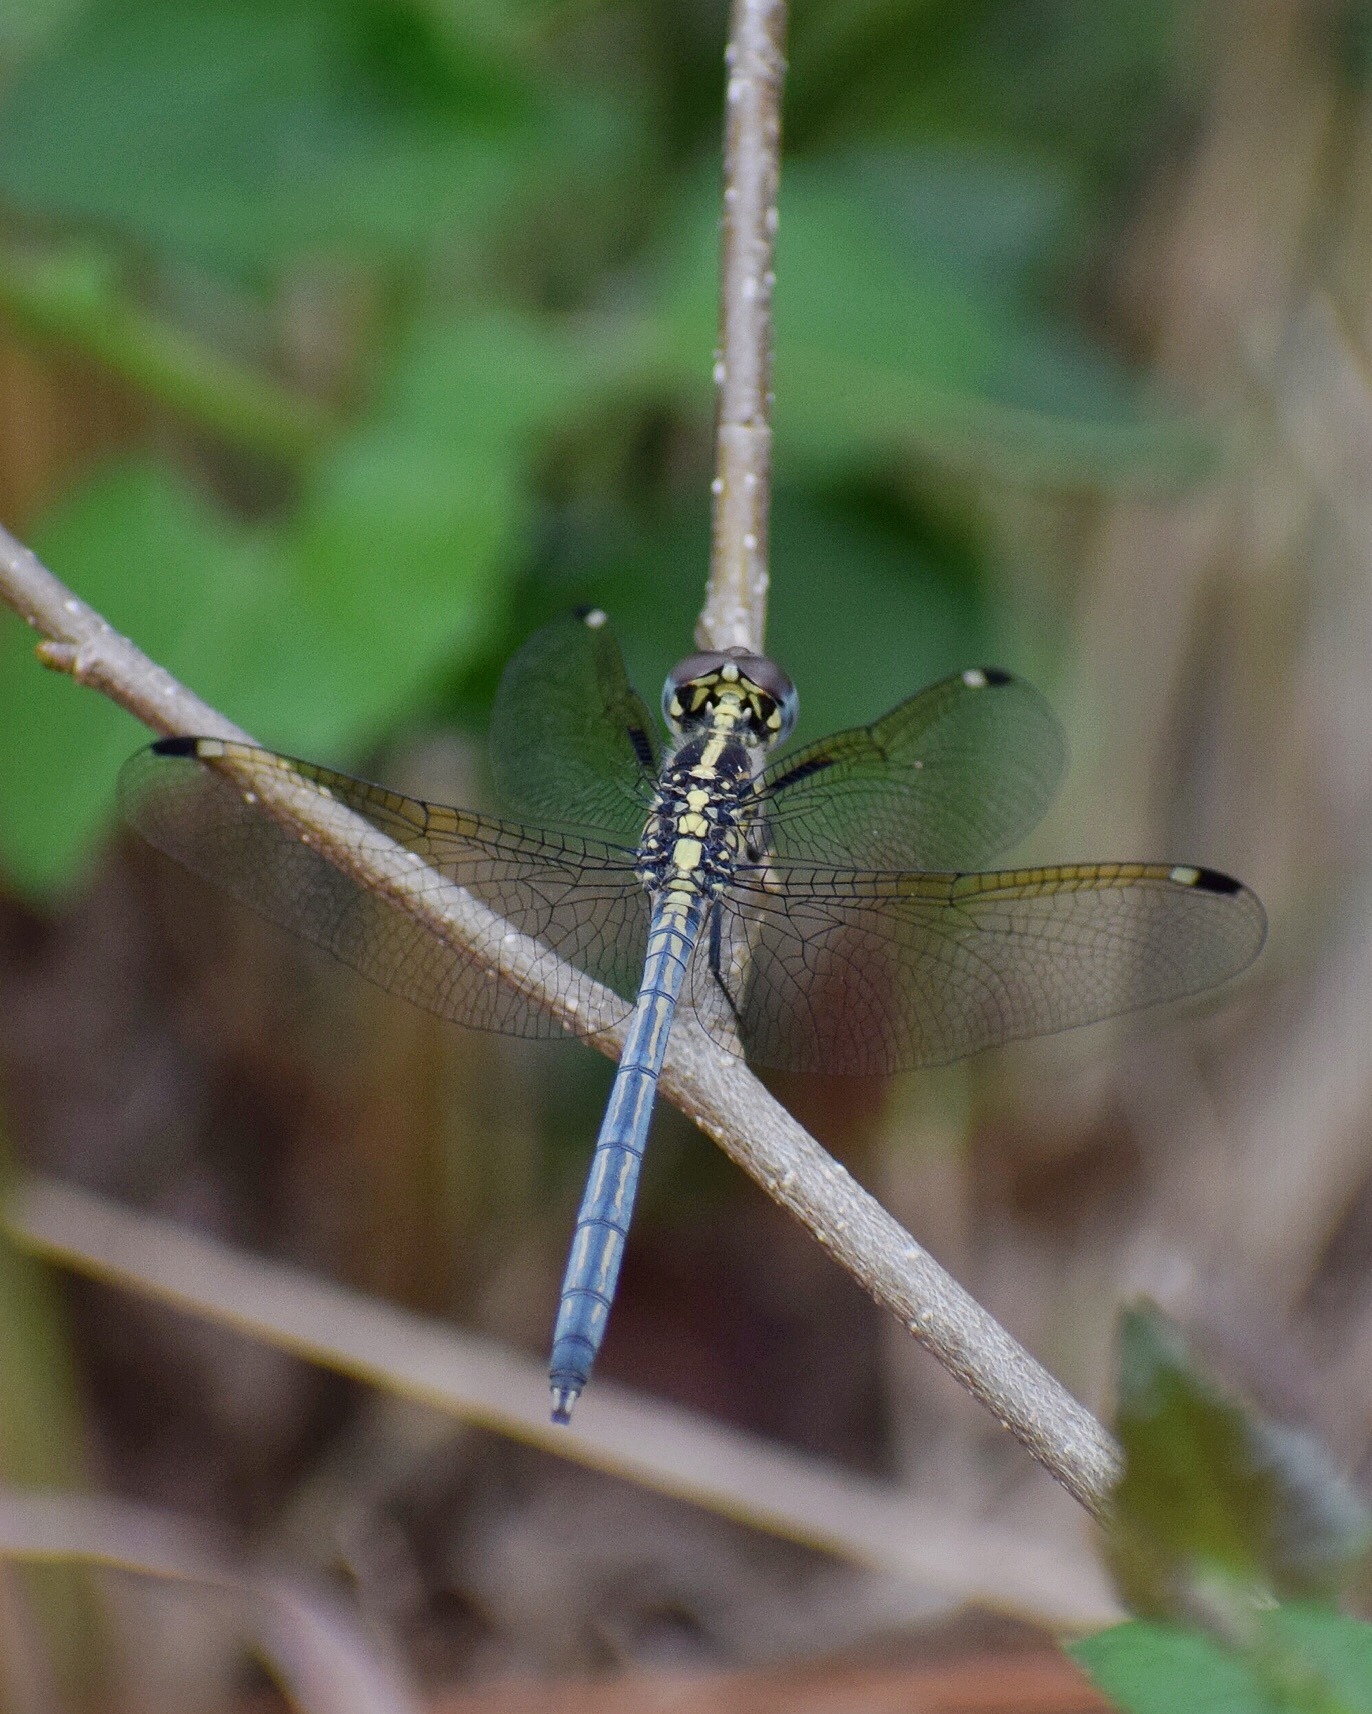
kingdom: Animalia
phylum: Arthropoda
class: Insecta
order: Odonata
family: Libellulidae
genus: Hemistigma
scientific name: Hemistigma albipunctum
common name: African pied-spot
